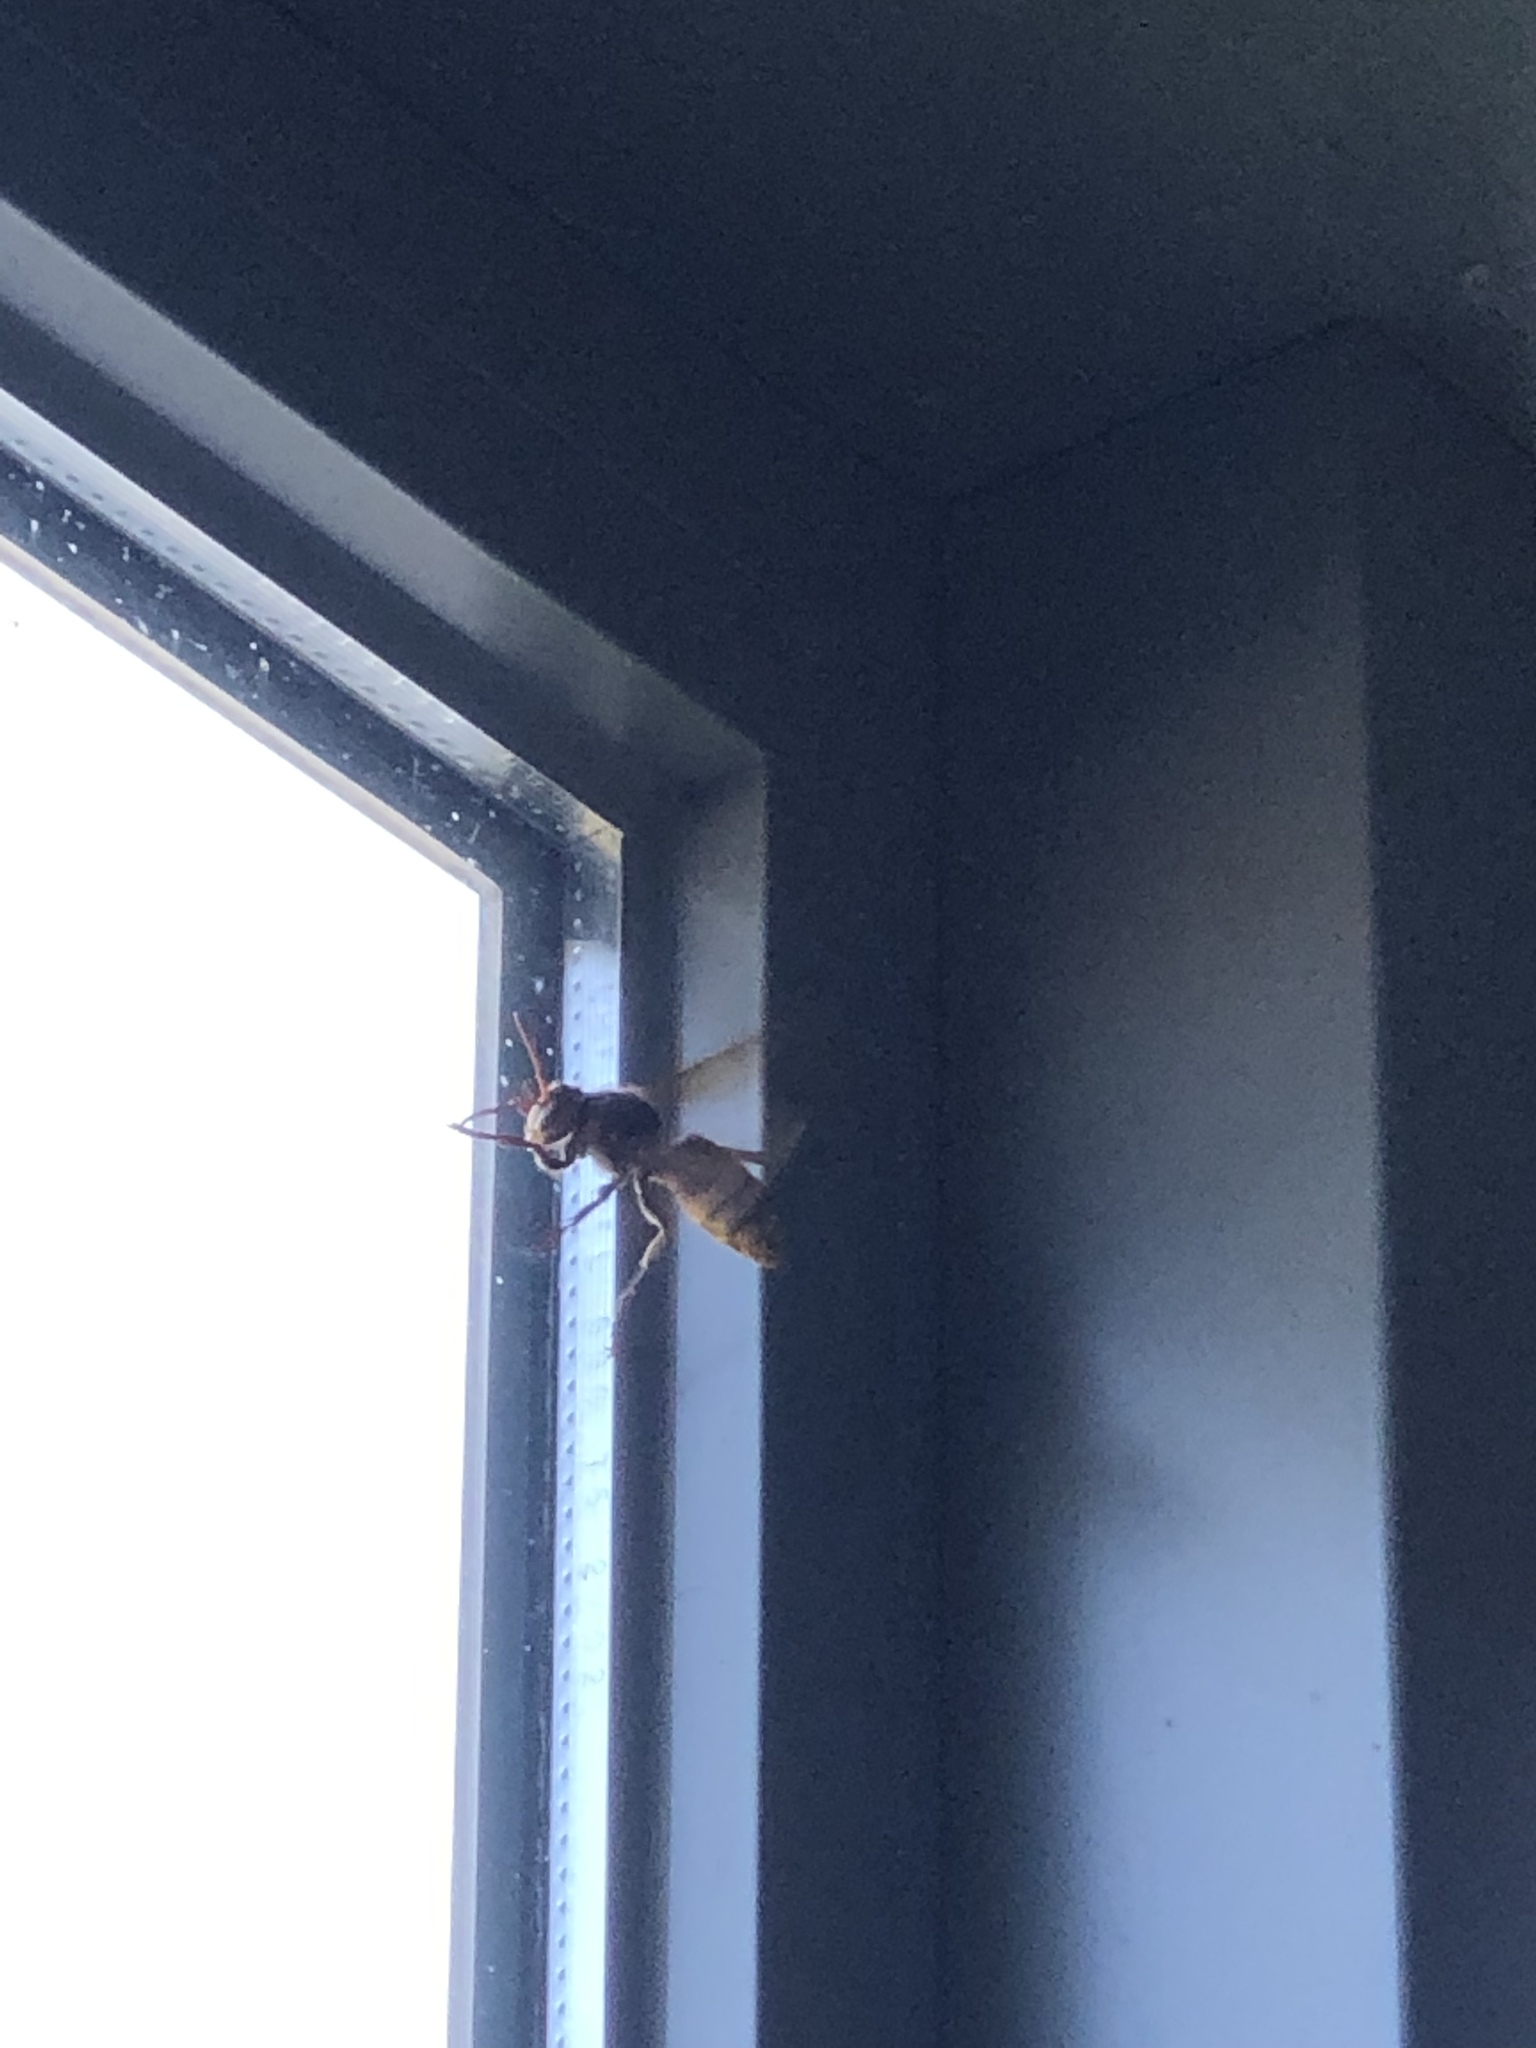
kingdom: Animalia
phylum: Arthropoda
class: Insecta
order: Hymenoptera
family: Vespidae
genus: Vespa
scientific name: Vespa crabro
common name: Hornet
